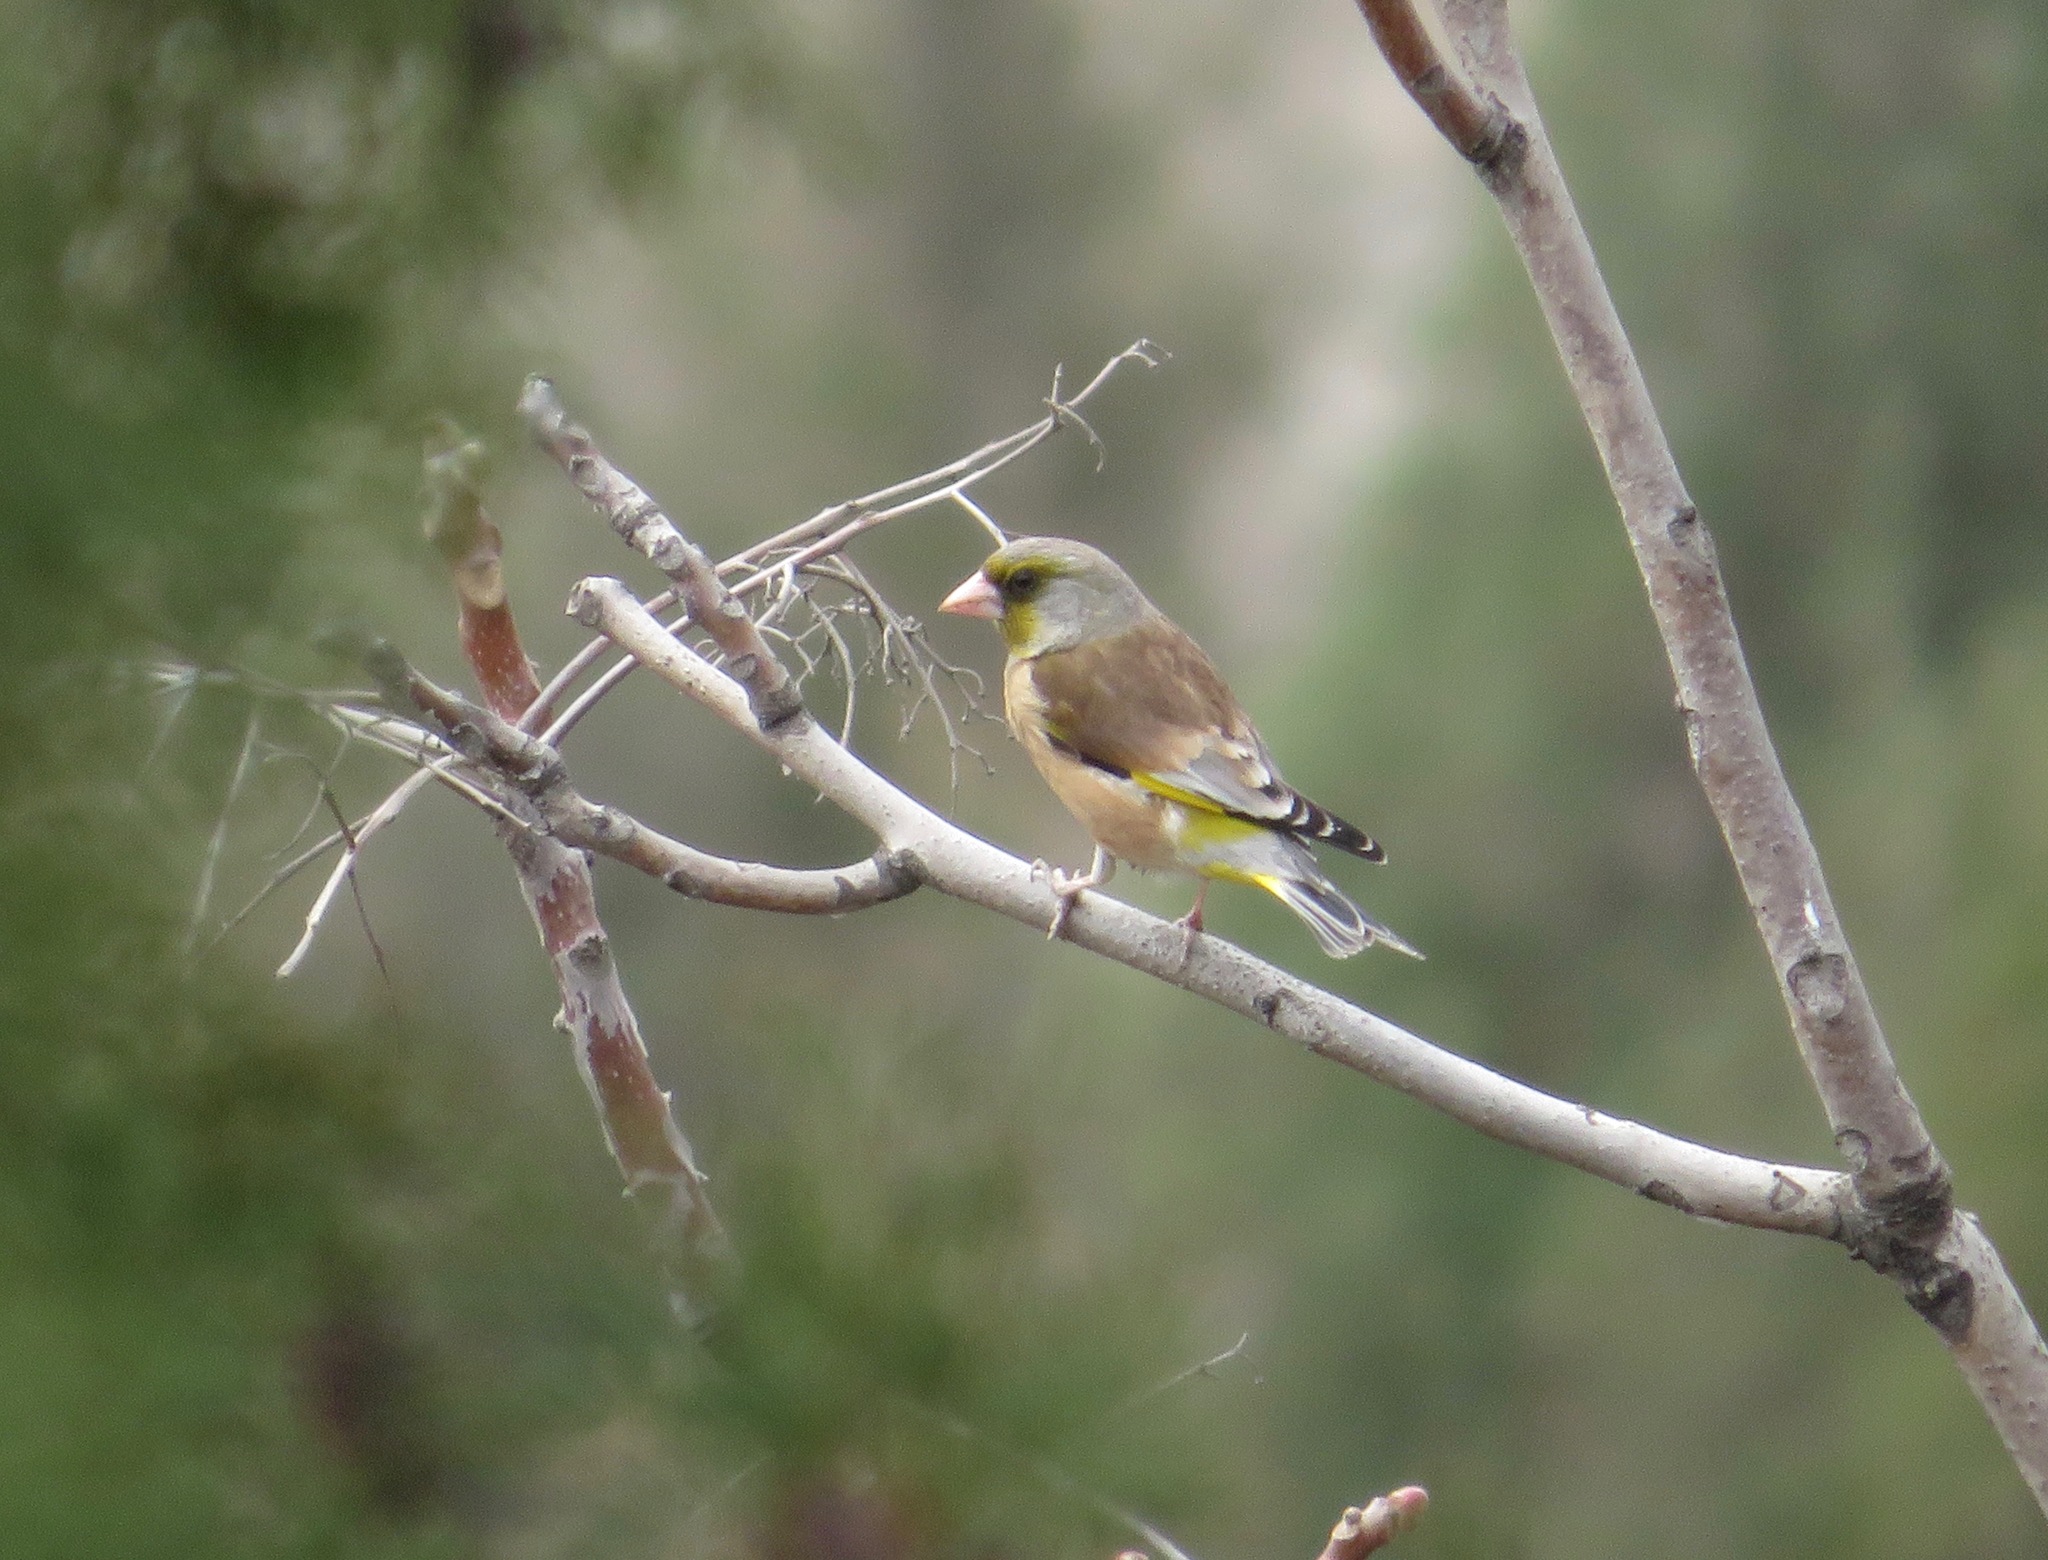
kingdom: Plantae
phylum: Tracheophyta
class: Liliopsida
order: Poales
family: Poaceae
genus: Chloris
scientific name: Chloris sinica
